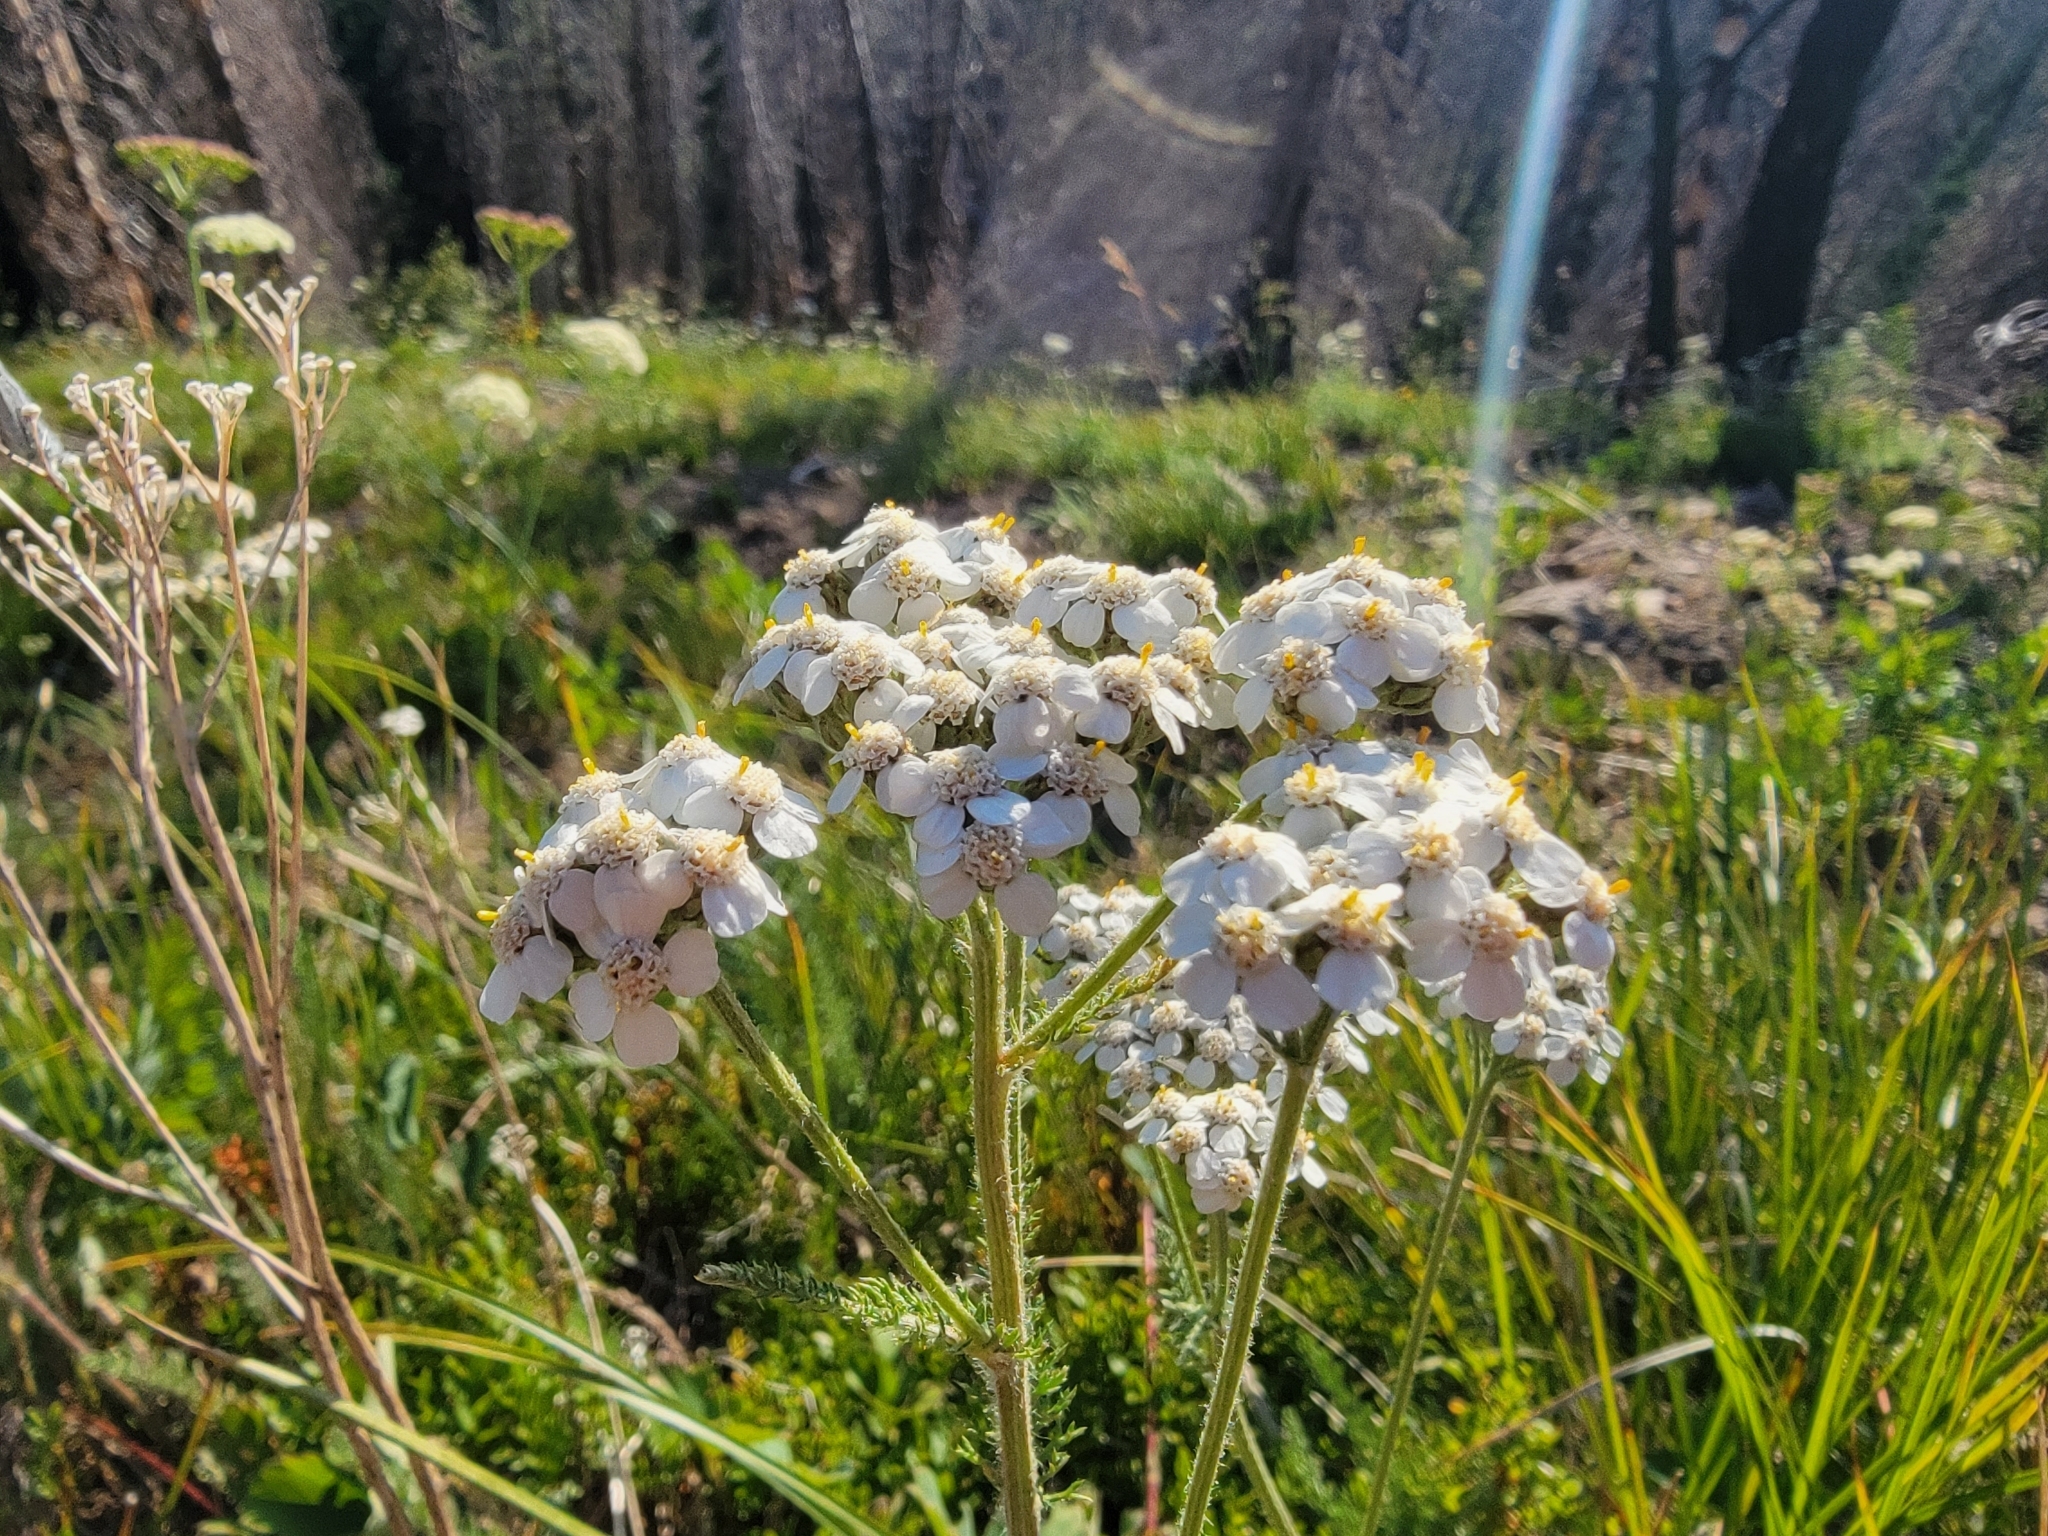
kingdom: Plantae
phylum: Tracheophyta
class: Magnoliopsida
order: Asterales
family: Asteraceae
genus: Achillea
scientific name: Achillea millefolium
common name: Yarrow
